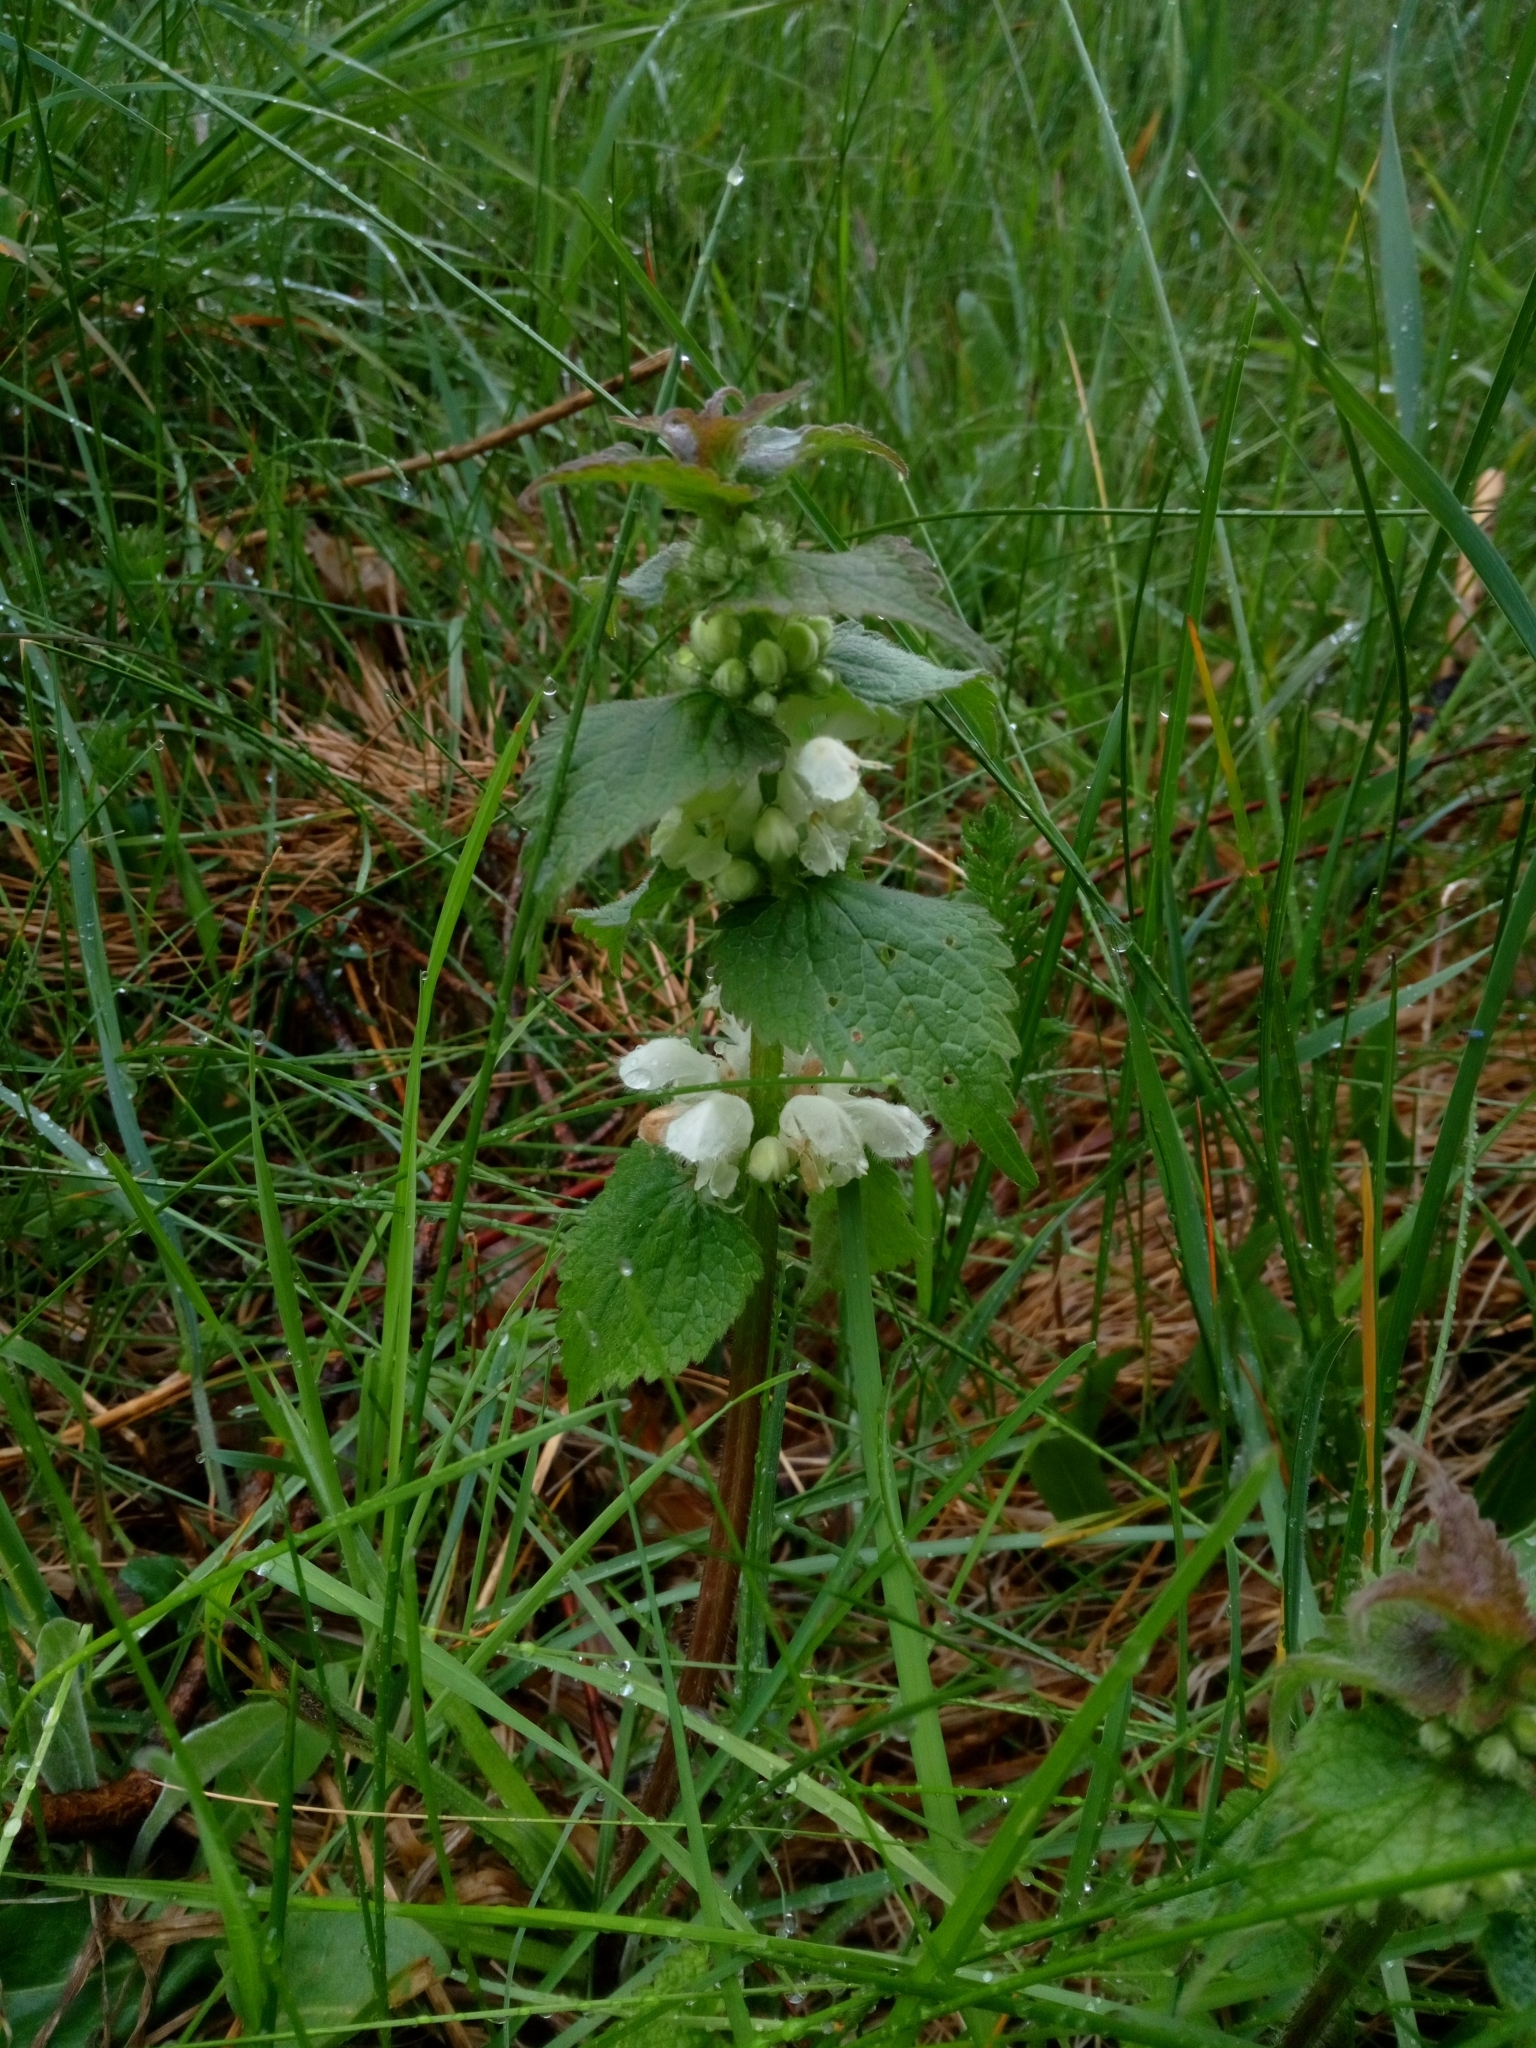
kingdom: Plantae
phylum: Tracheophyta
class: Magnoliopsida
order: Lamiales
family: Lamiaceae
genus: Lamium
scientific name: Lamium album
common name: White dead-nettle
